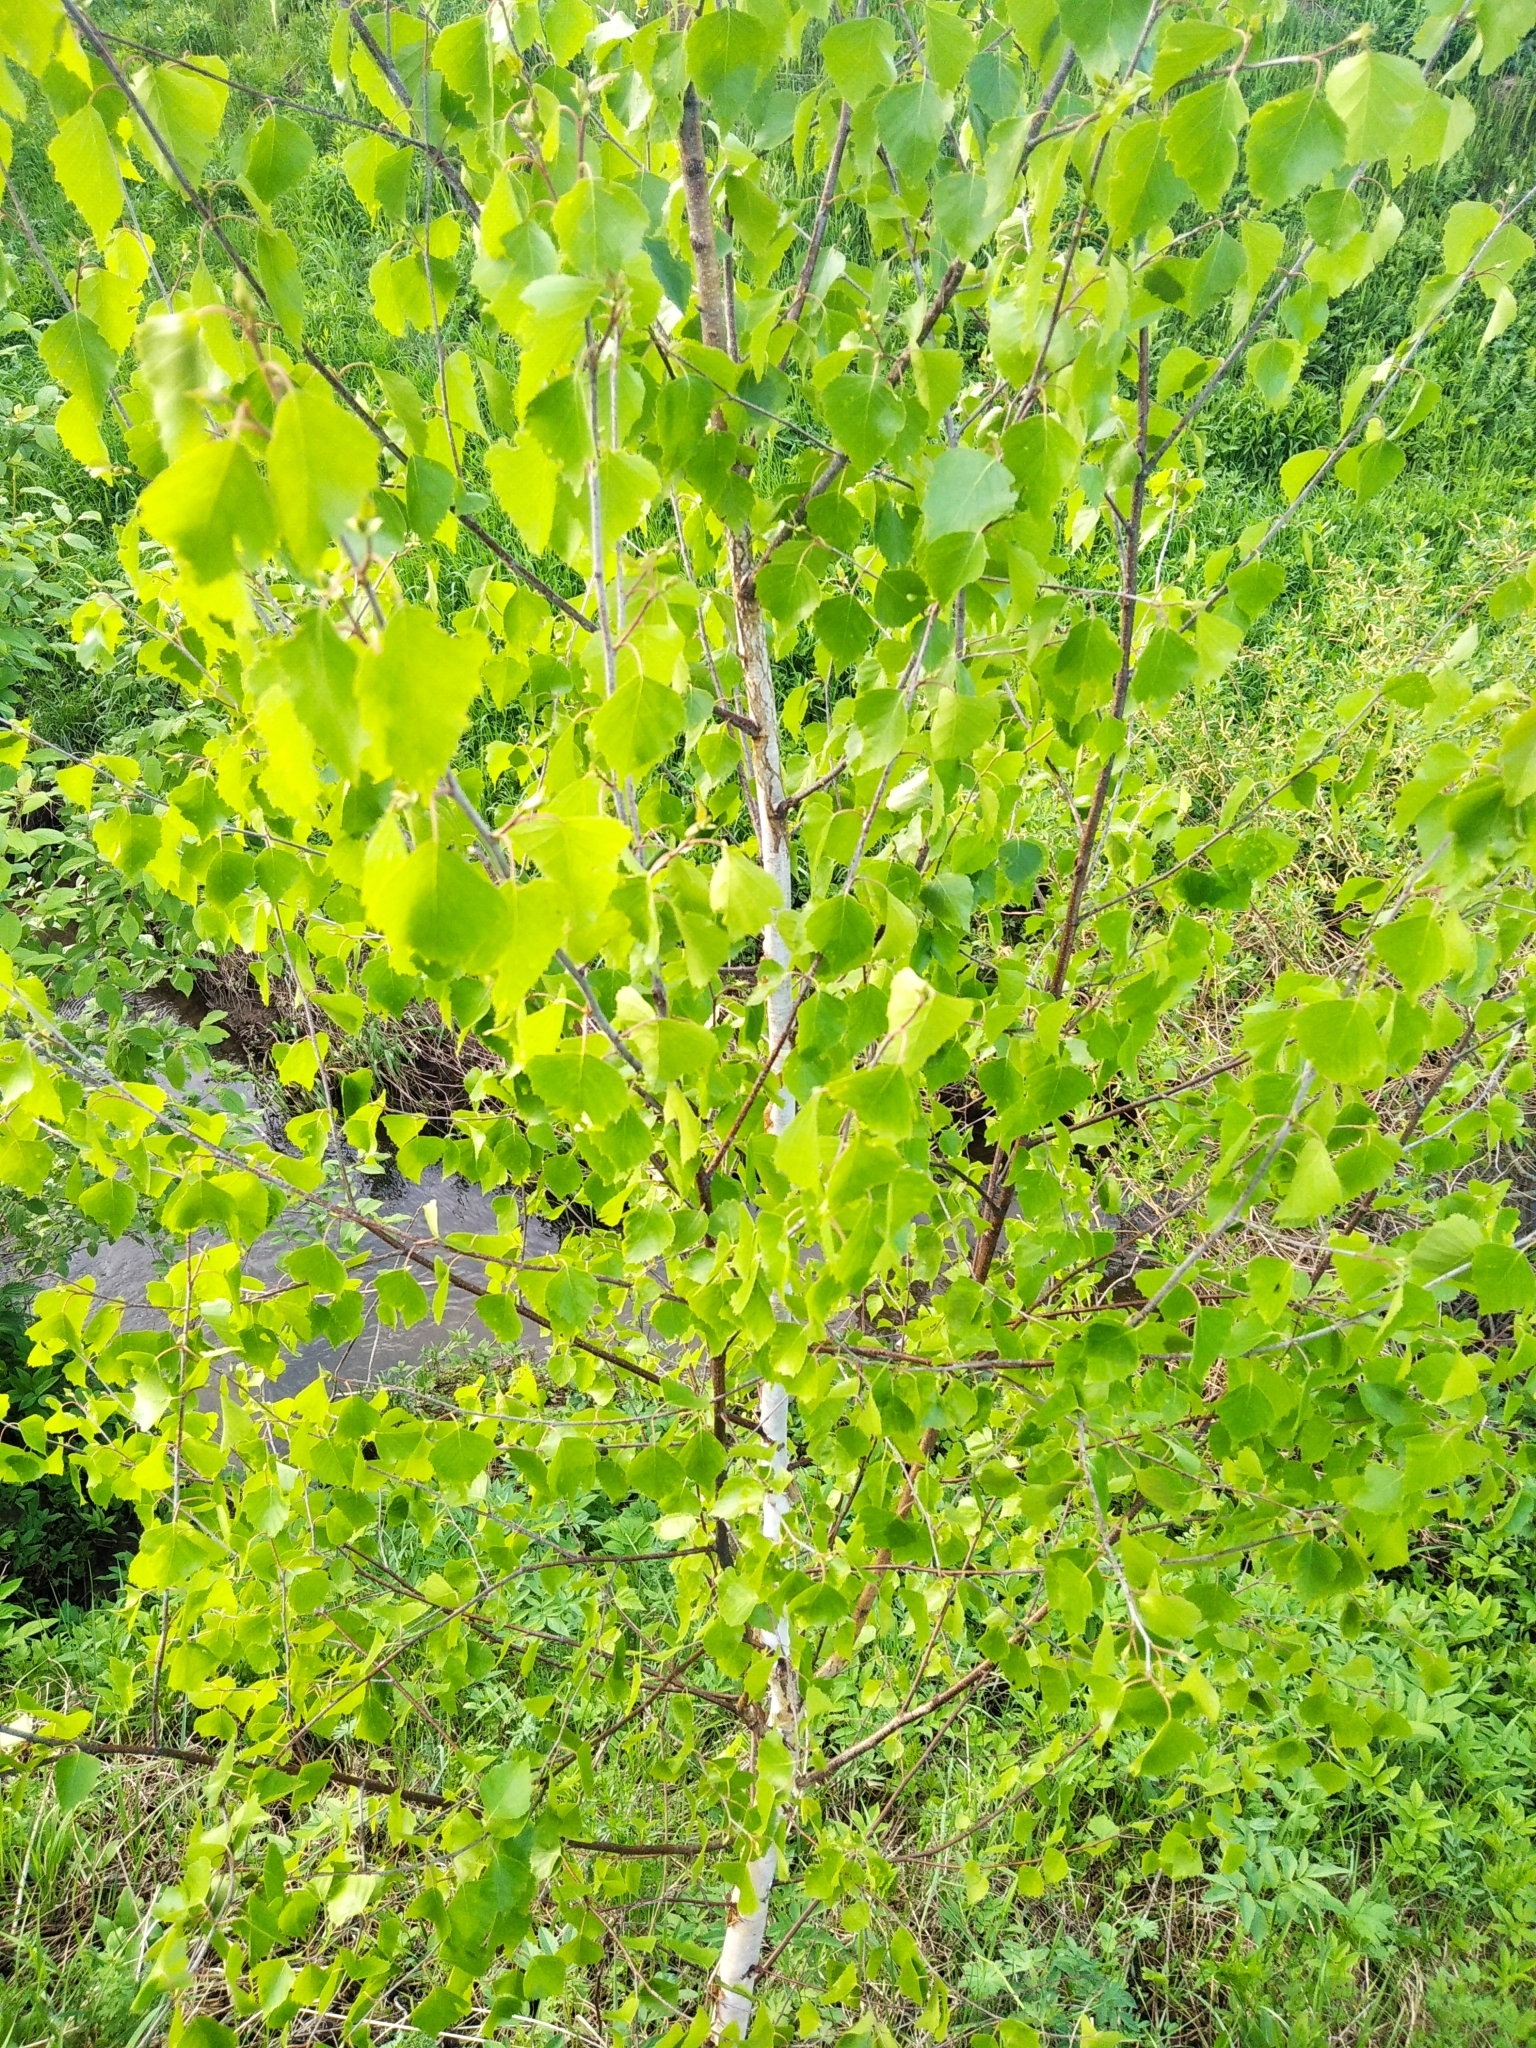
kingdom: Plantae
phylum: Tracheophyta
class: Magnoliopsida
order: Fagales
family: Betulaceae
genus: Betula
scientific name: Betula pendula
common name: Silver birch
